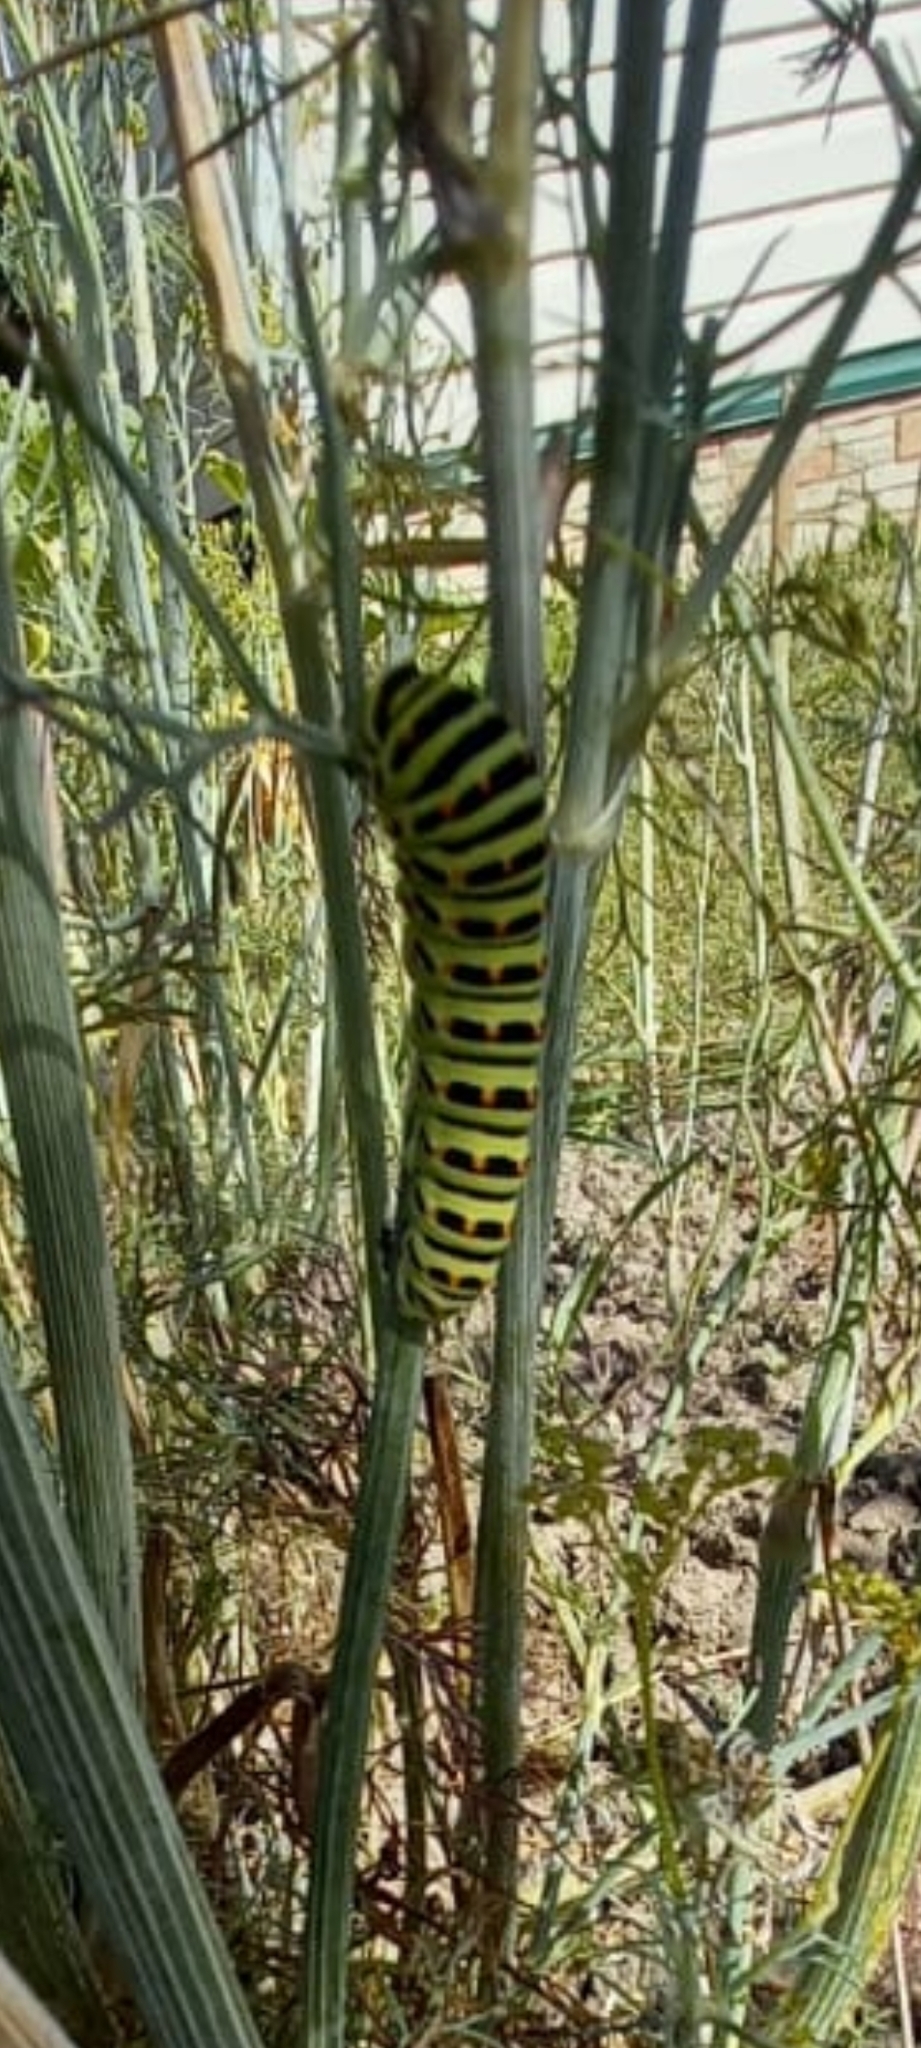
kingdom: Animalia
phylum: Arthropoda
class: Insecta
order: Lepidoptera
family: Papilionidae
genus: Papilio
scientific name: Papilio machaon
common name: Swallowtail
